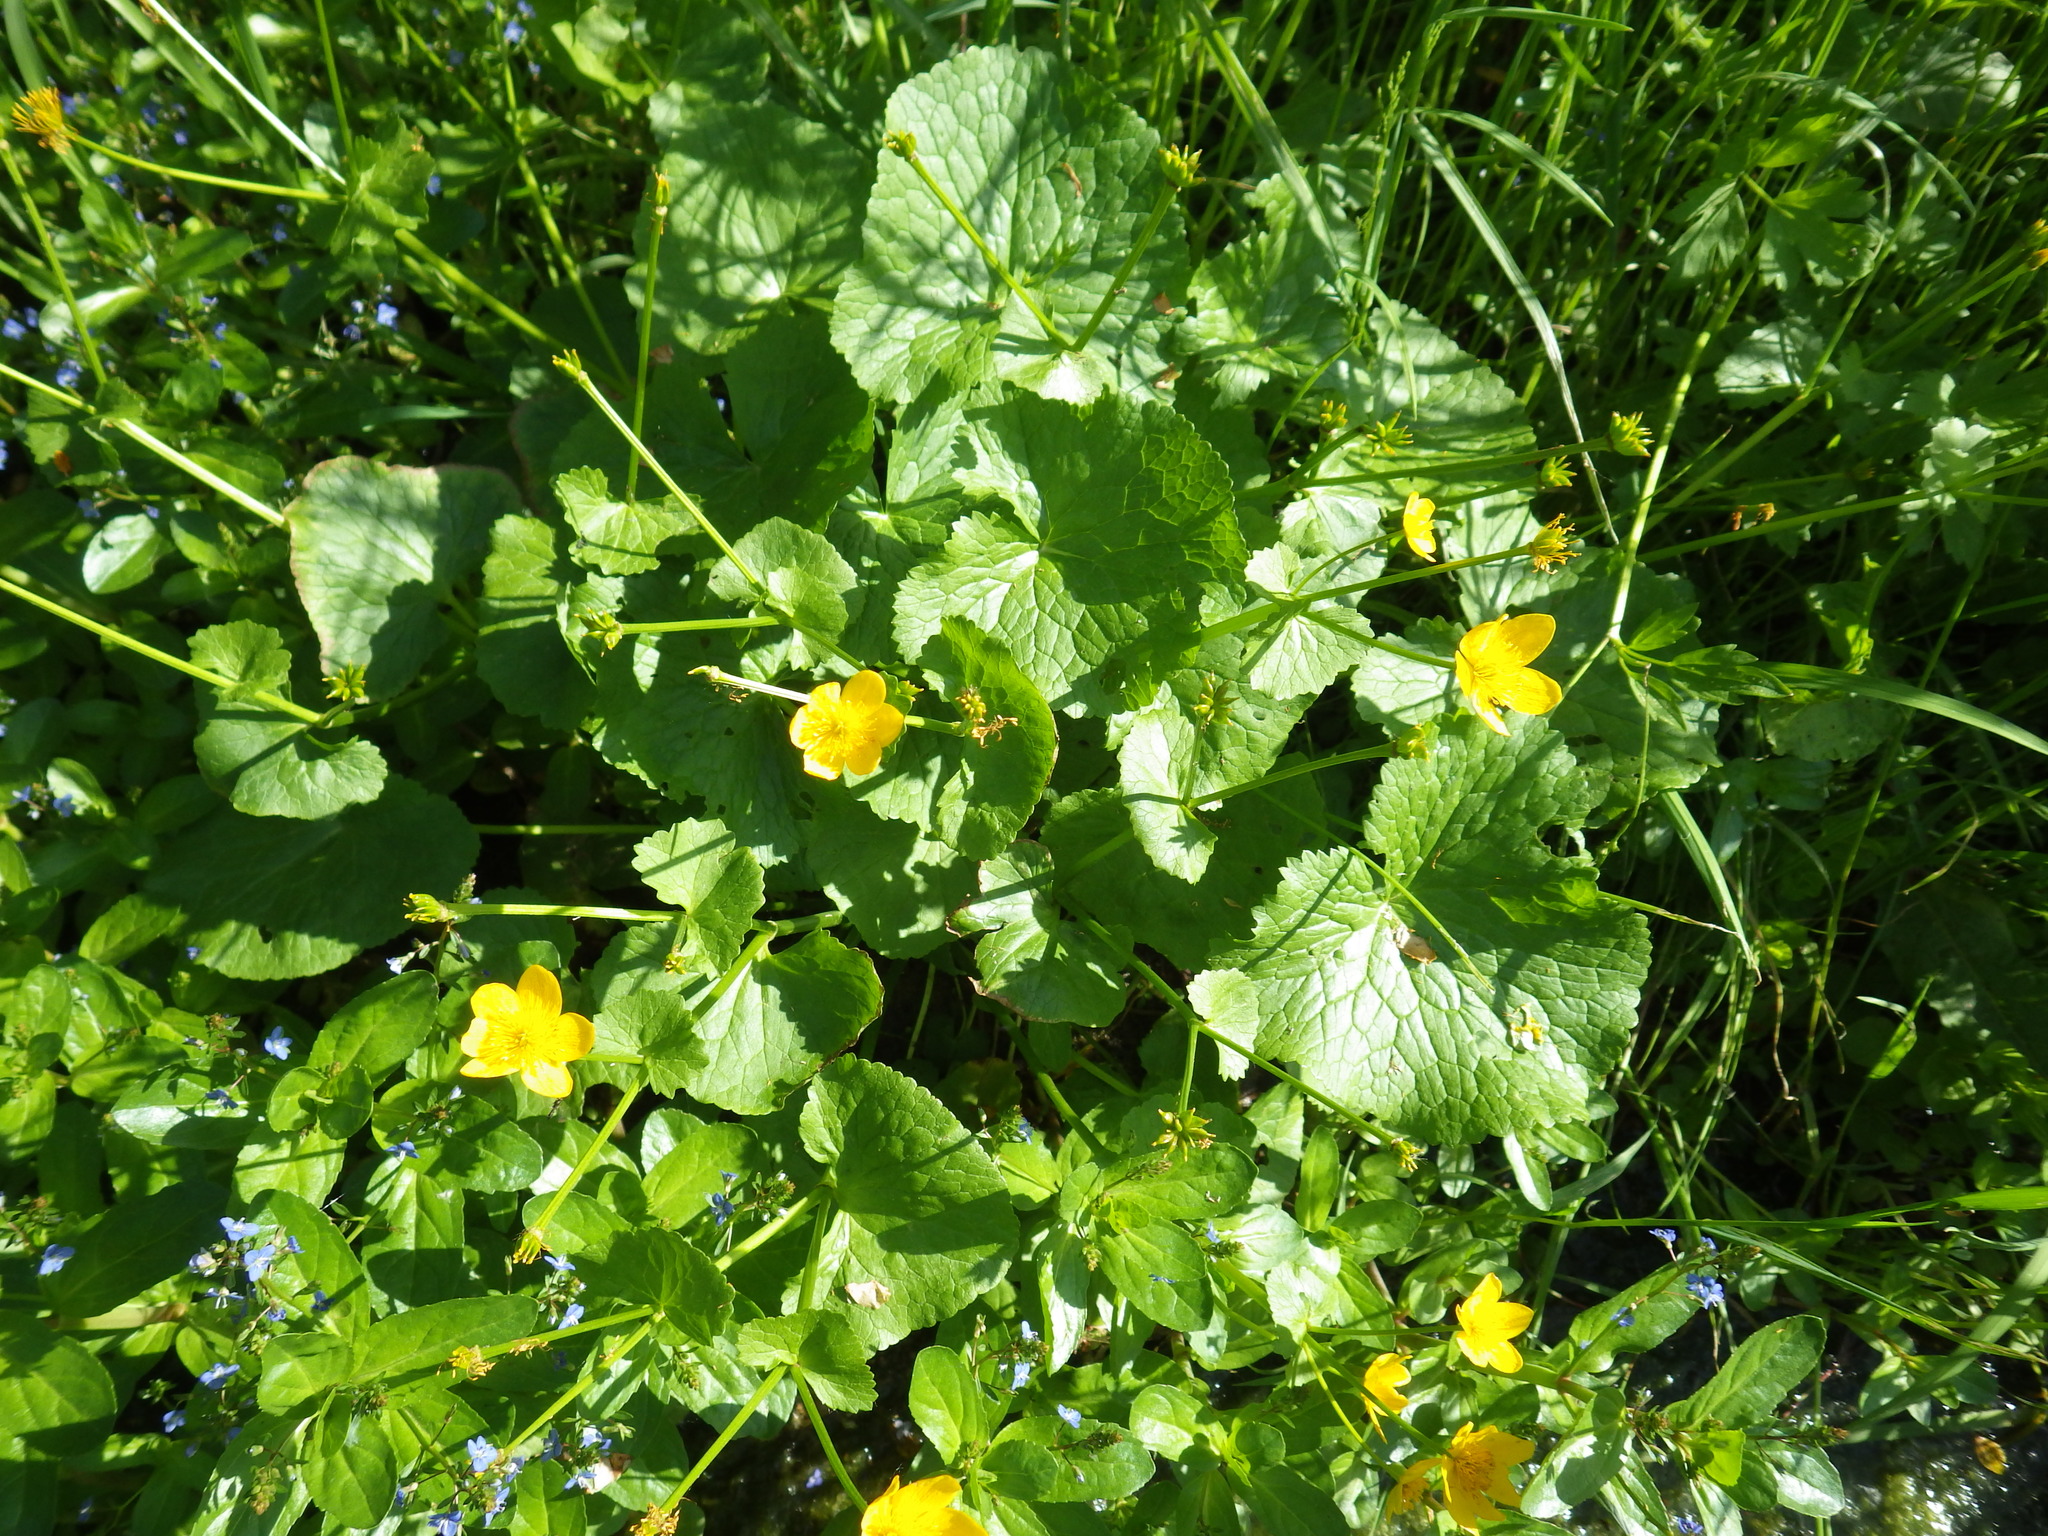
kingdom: Plantae
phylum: Tracheophyta
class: Magnoliopsida
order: Ranunculales
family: Ranunculaceae
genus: Caltha
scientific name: Caltha palustris
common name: Marsh marigold
